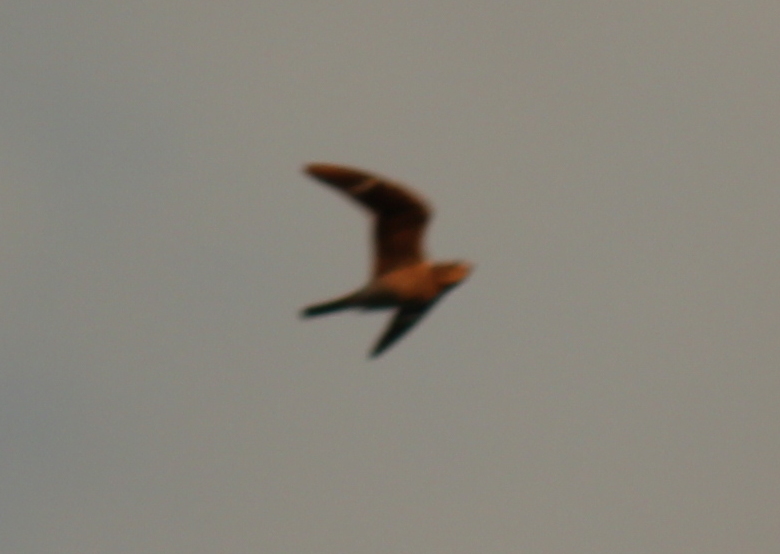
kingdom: Animalia
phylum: Chordata
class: Aves
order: Caprimulgiformes
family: Caprimulgidae
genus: Chordeiles
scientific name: Chordeiles minor
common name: Common nighthawk
